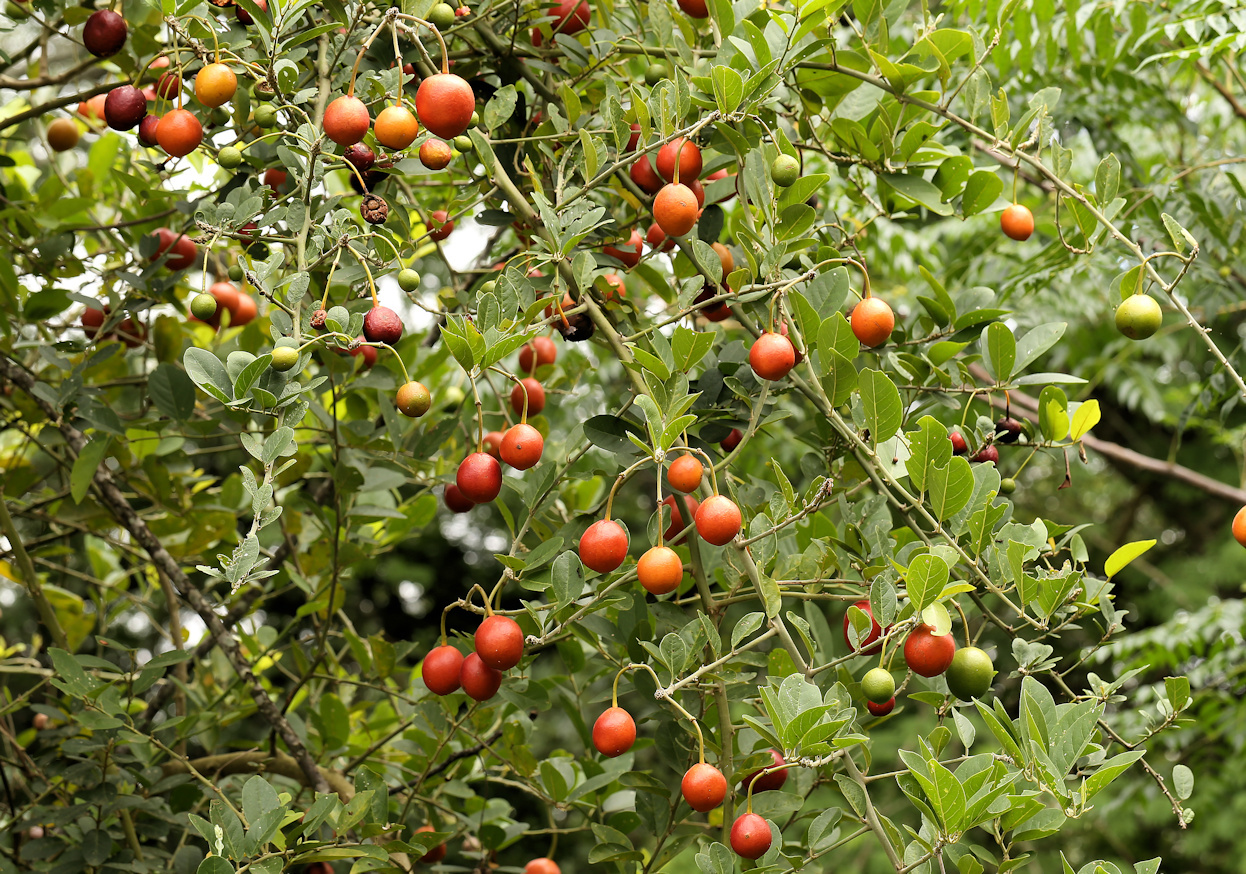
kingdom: Plantae
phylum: Tracheophyta
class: Magnoliopsida
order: Brassicales
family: Capparaceae
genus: Capparis
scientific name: Capparis tomentosa
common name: African caper
